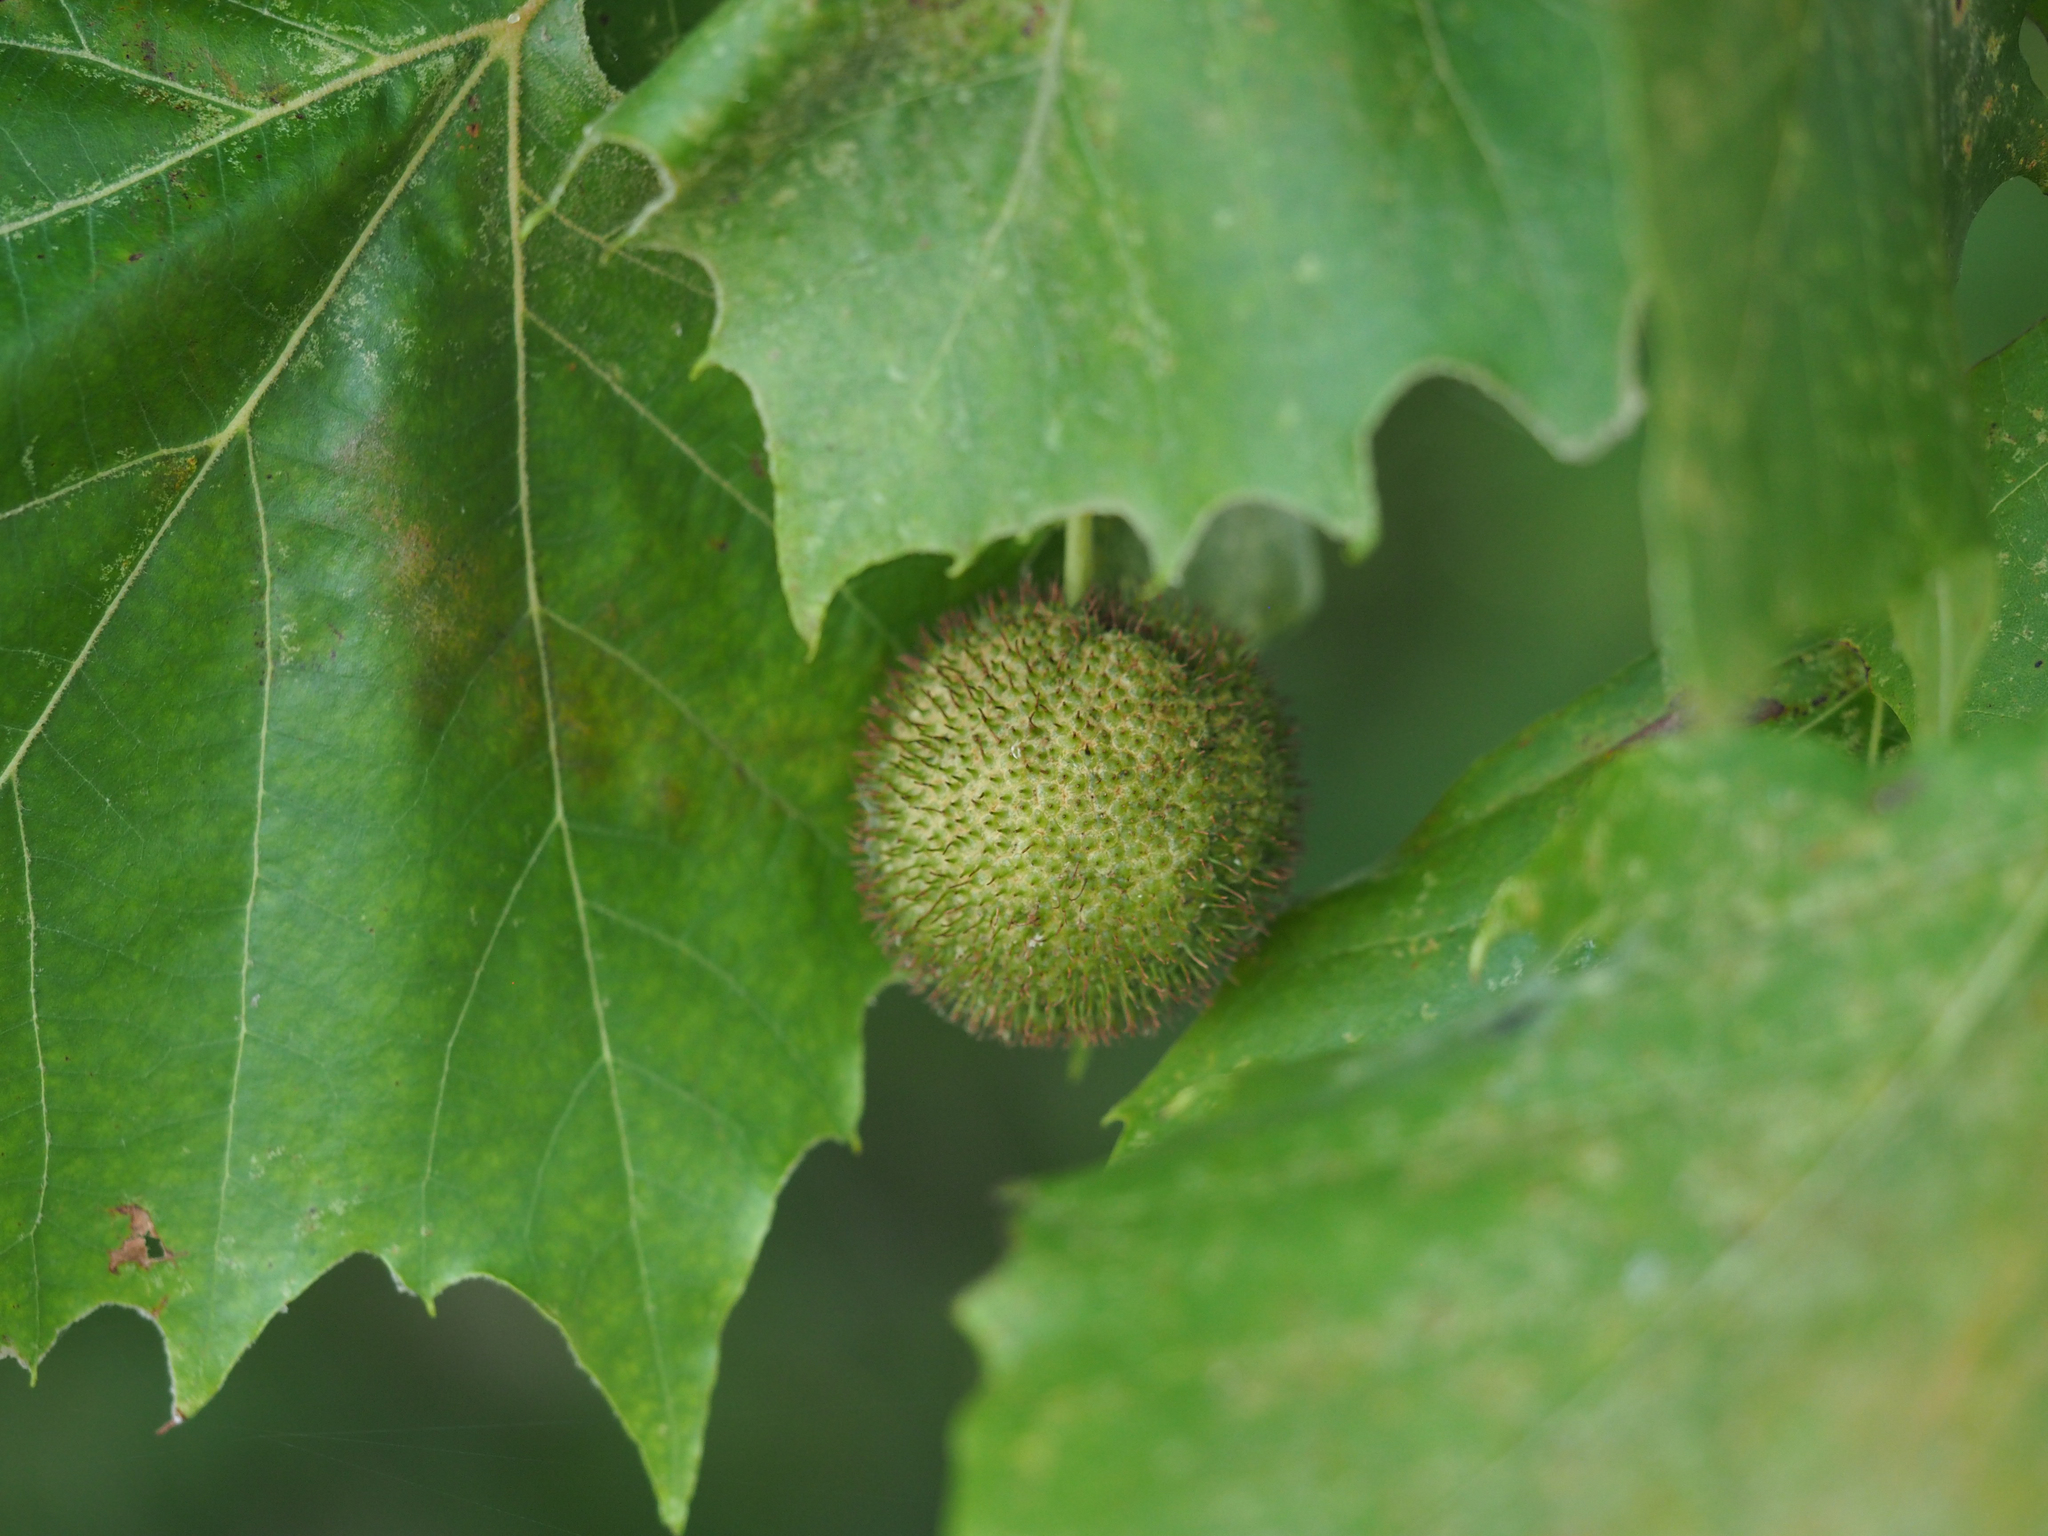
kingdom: Plantae
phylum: Tracheophyta
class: Magnoliopsida
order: Proteales
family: Platanaceae
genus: Platanus
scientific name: Platanus occidentalis
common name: American sycamore
